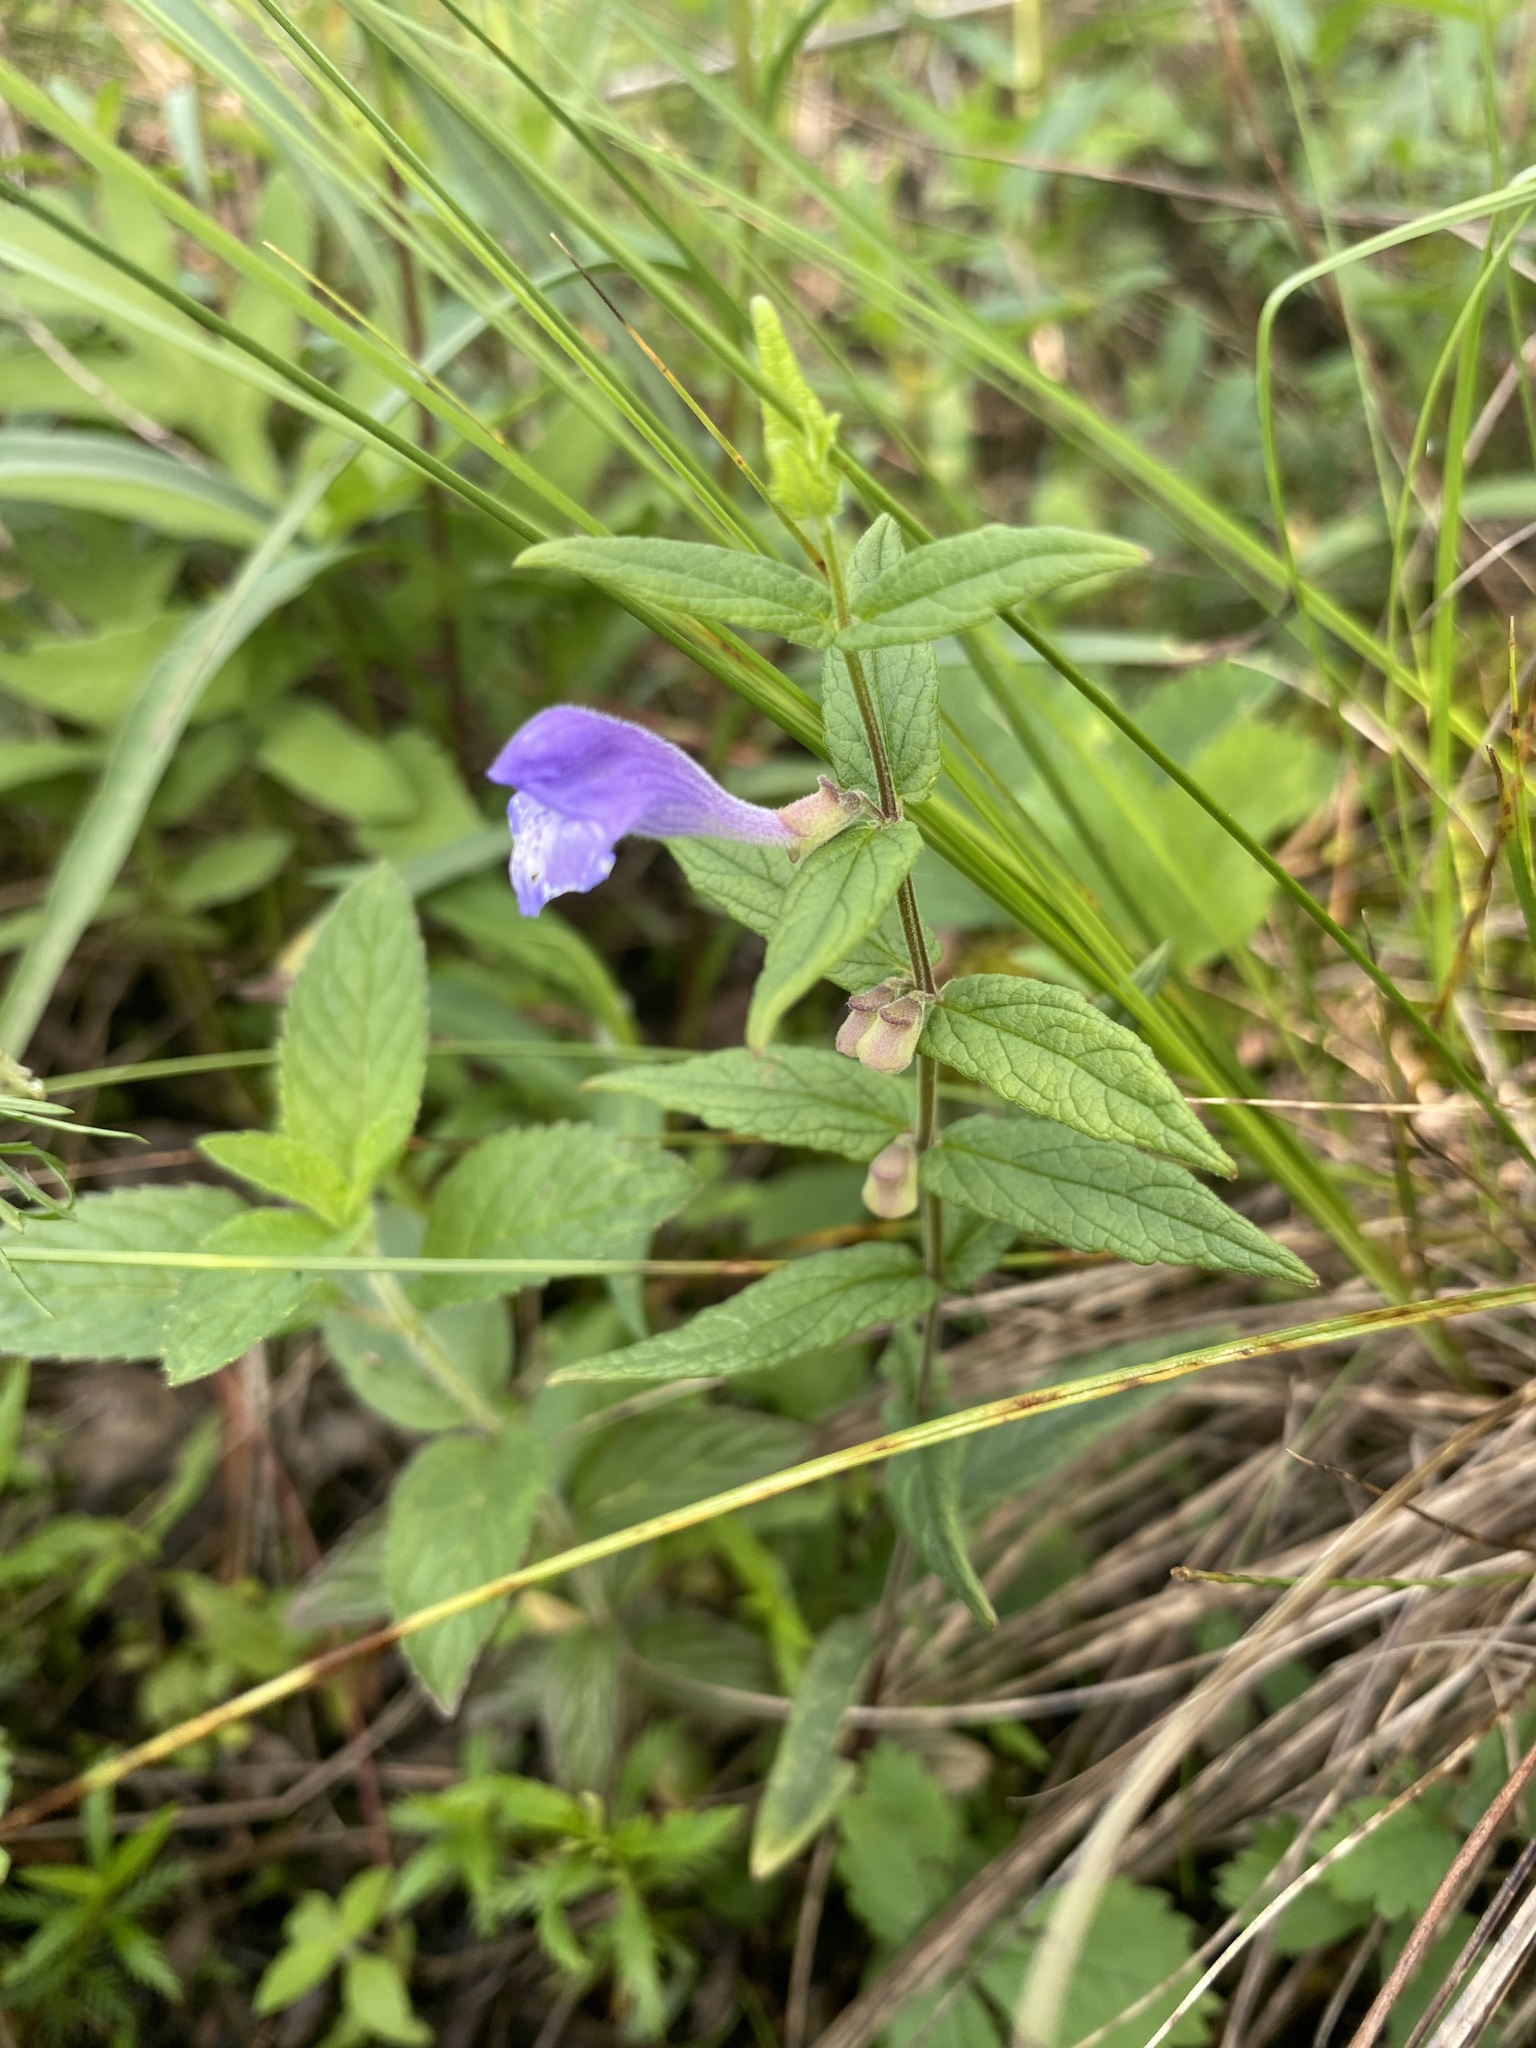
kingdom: Plantae
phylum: Tracheophyta
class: Magnoliopsida
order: Lamiales
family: Lamiaceae
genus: Scutellaria
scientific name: Scutellaria galericulata
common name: Skullcap
